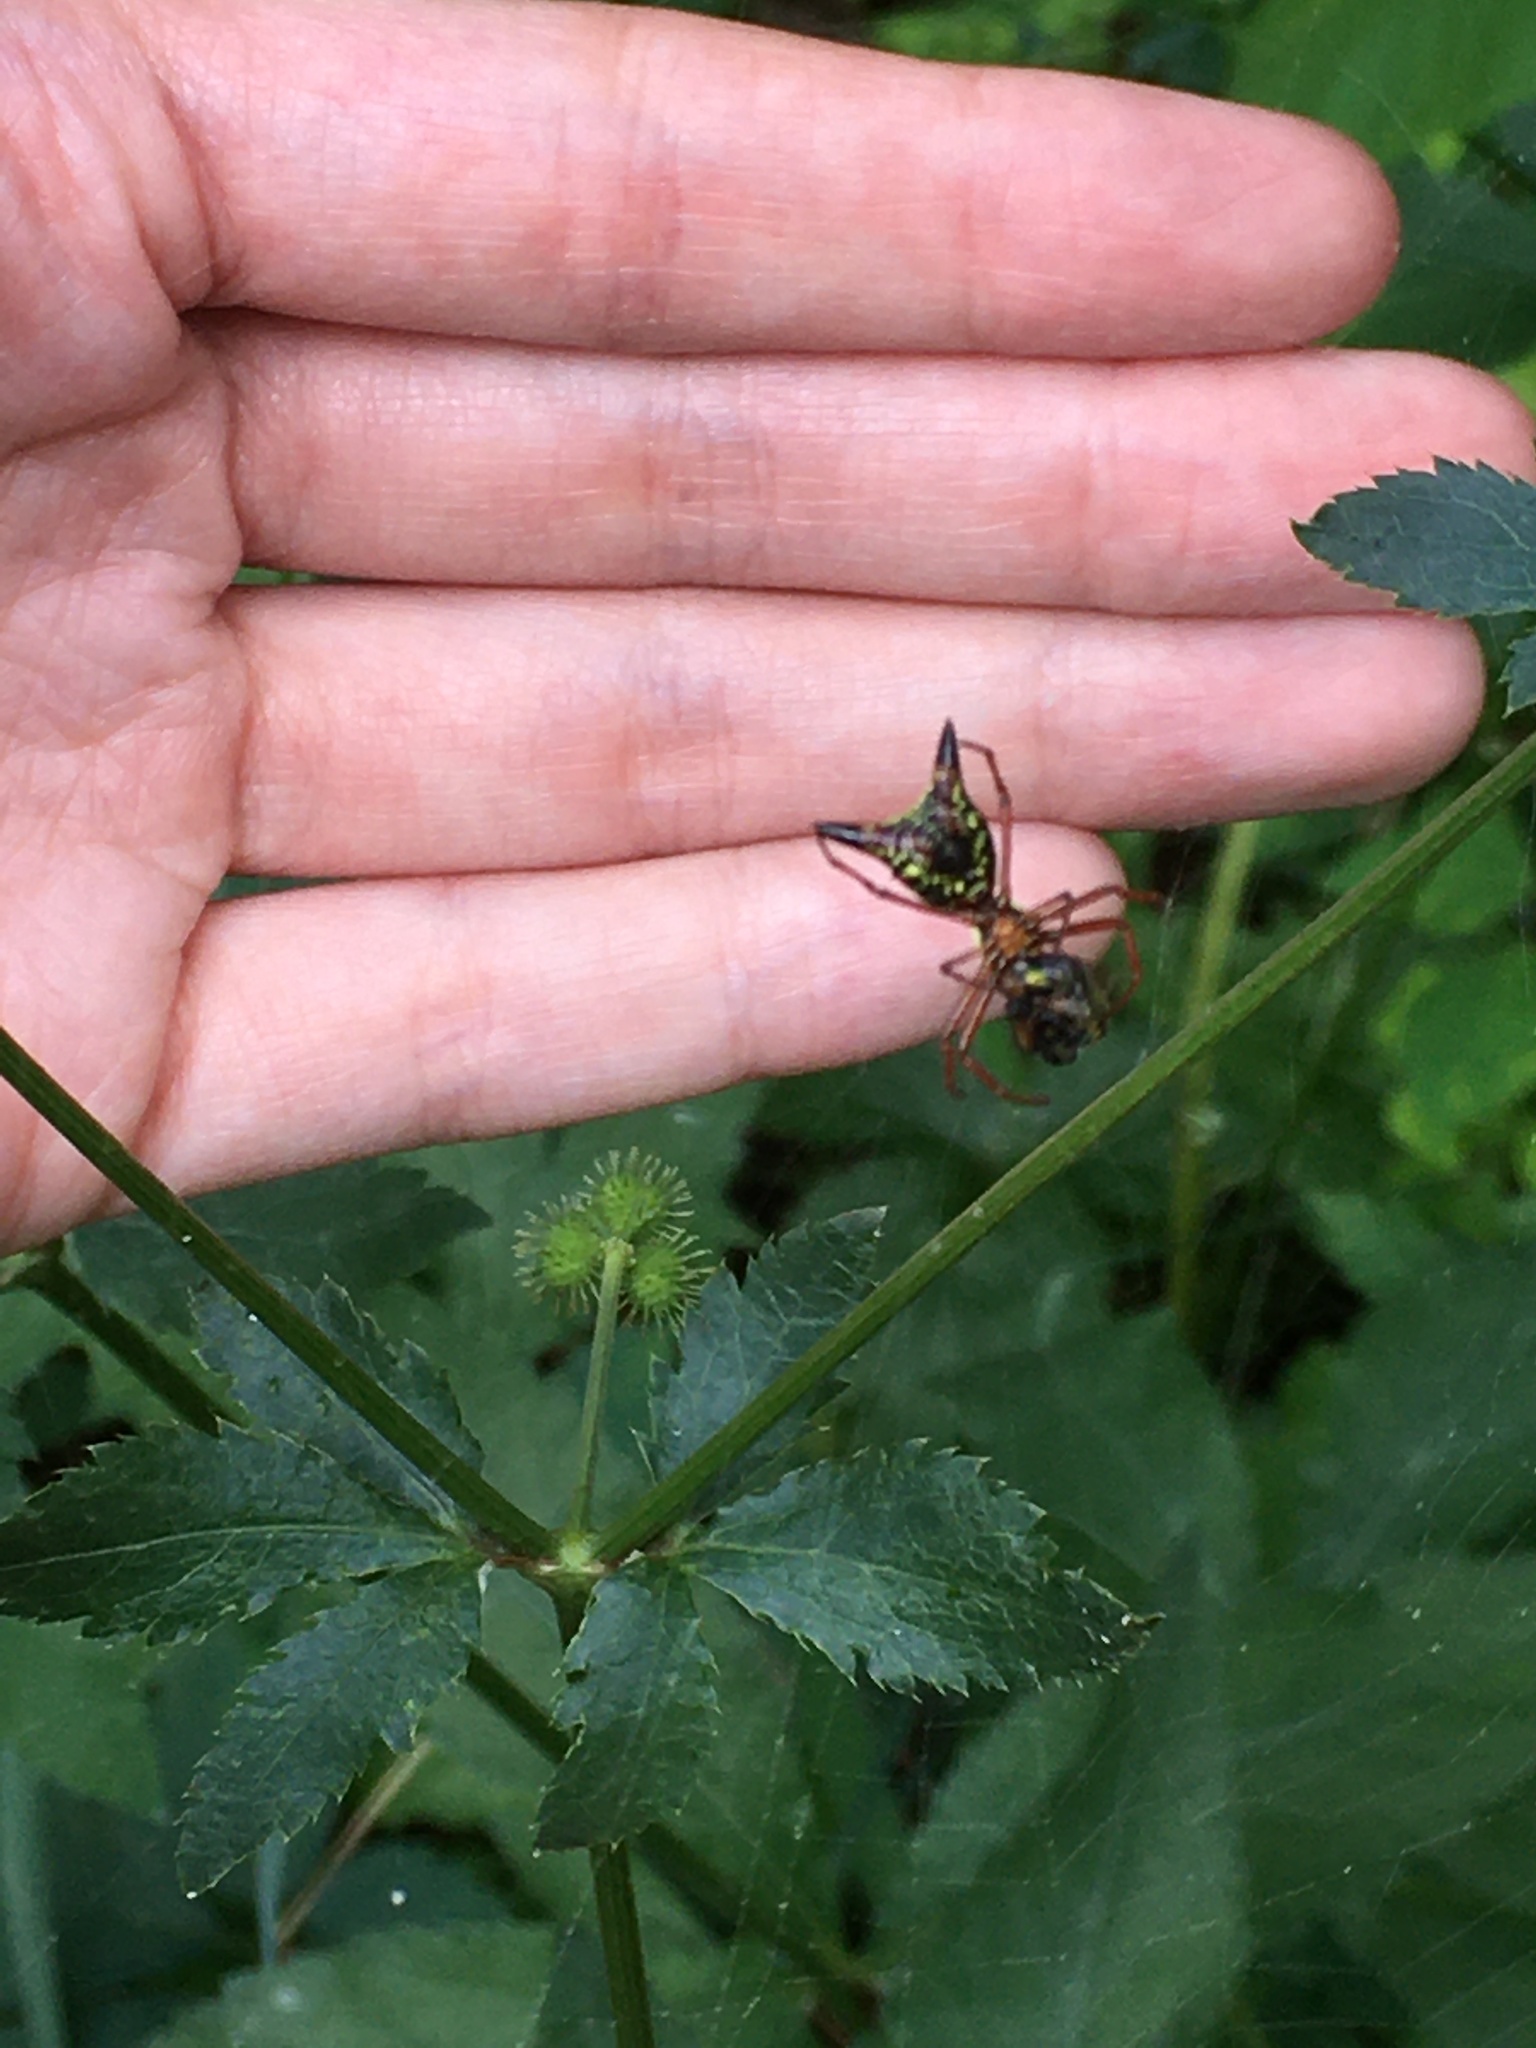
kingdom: Animalia
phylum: Arthropoda
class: Arachnida
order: Araneae
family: Araneidae
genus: Micrathena
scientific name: Micrathena sagittata
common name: Orb weavers
